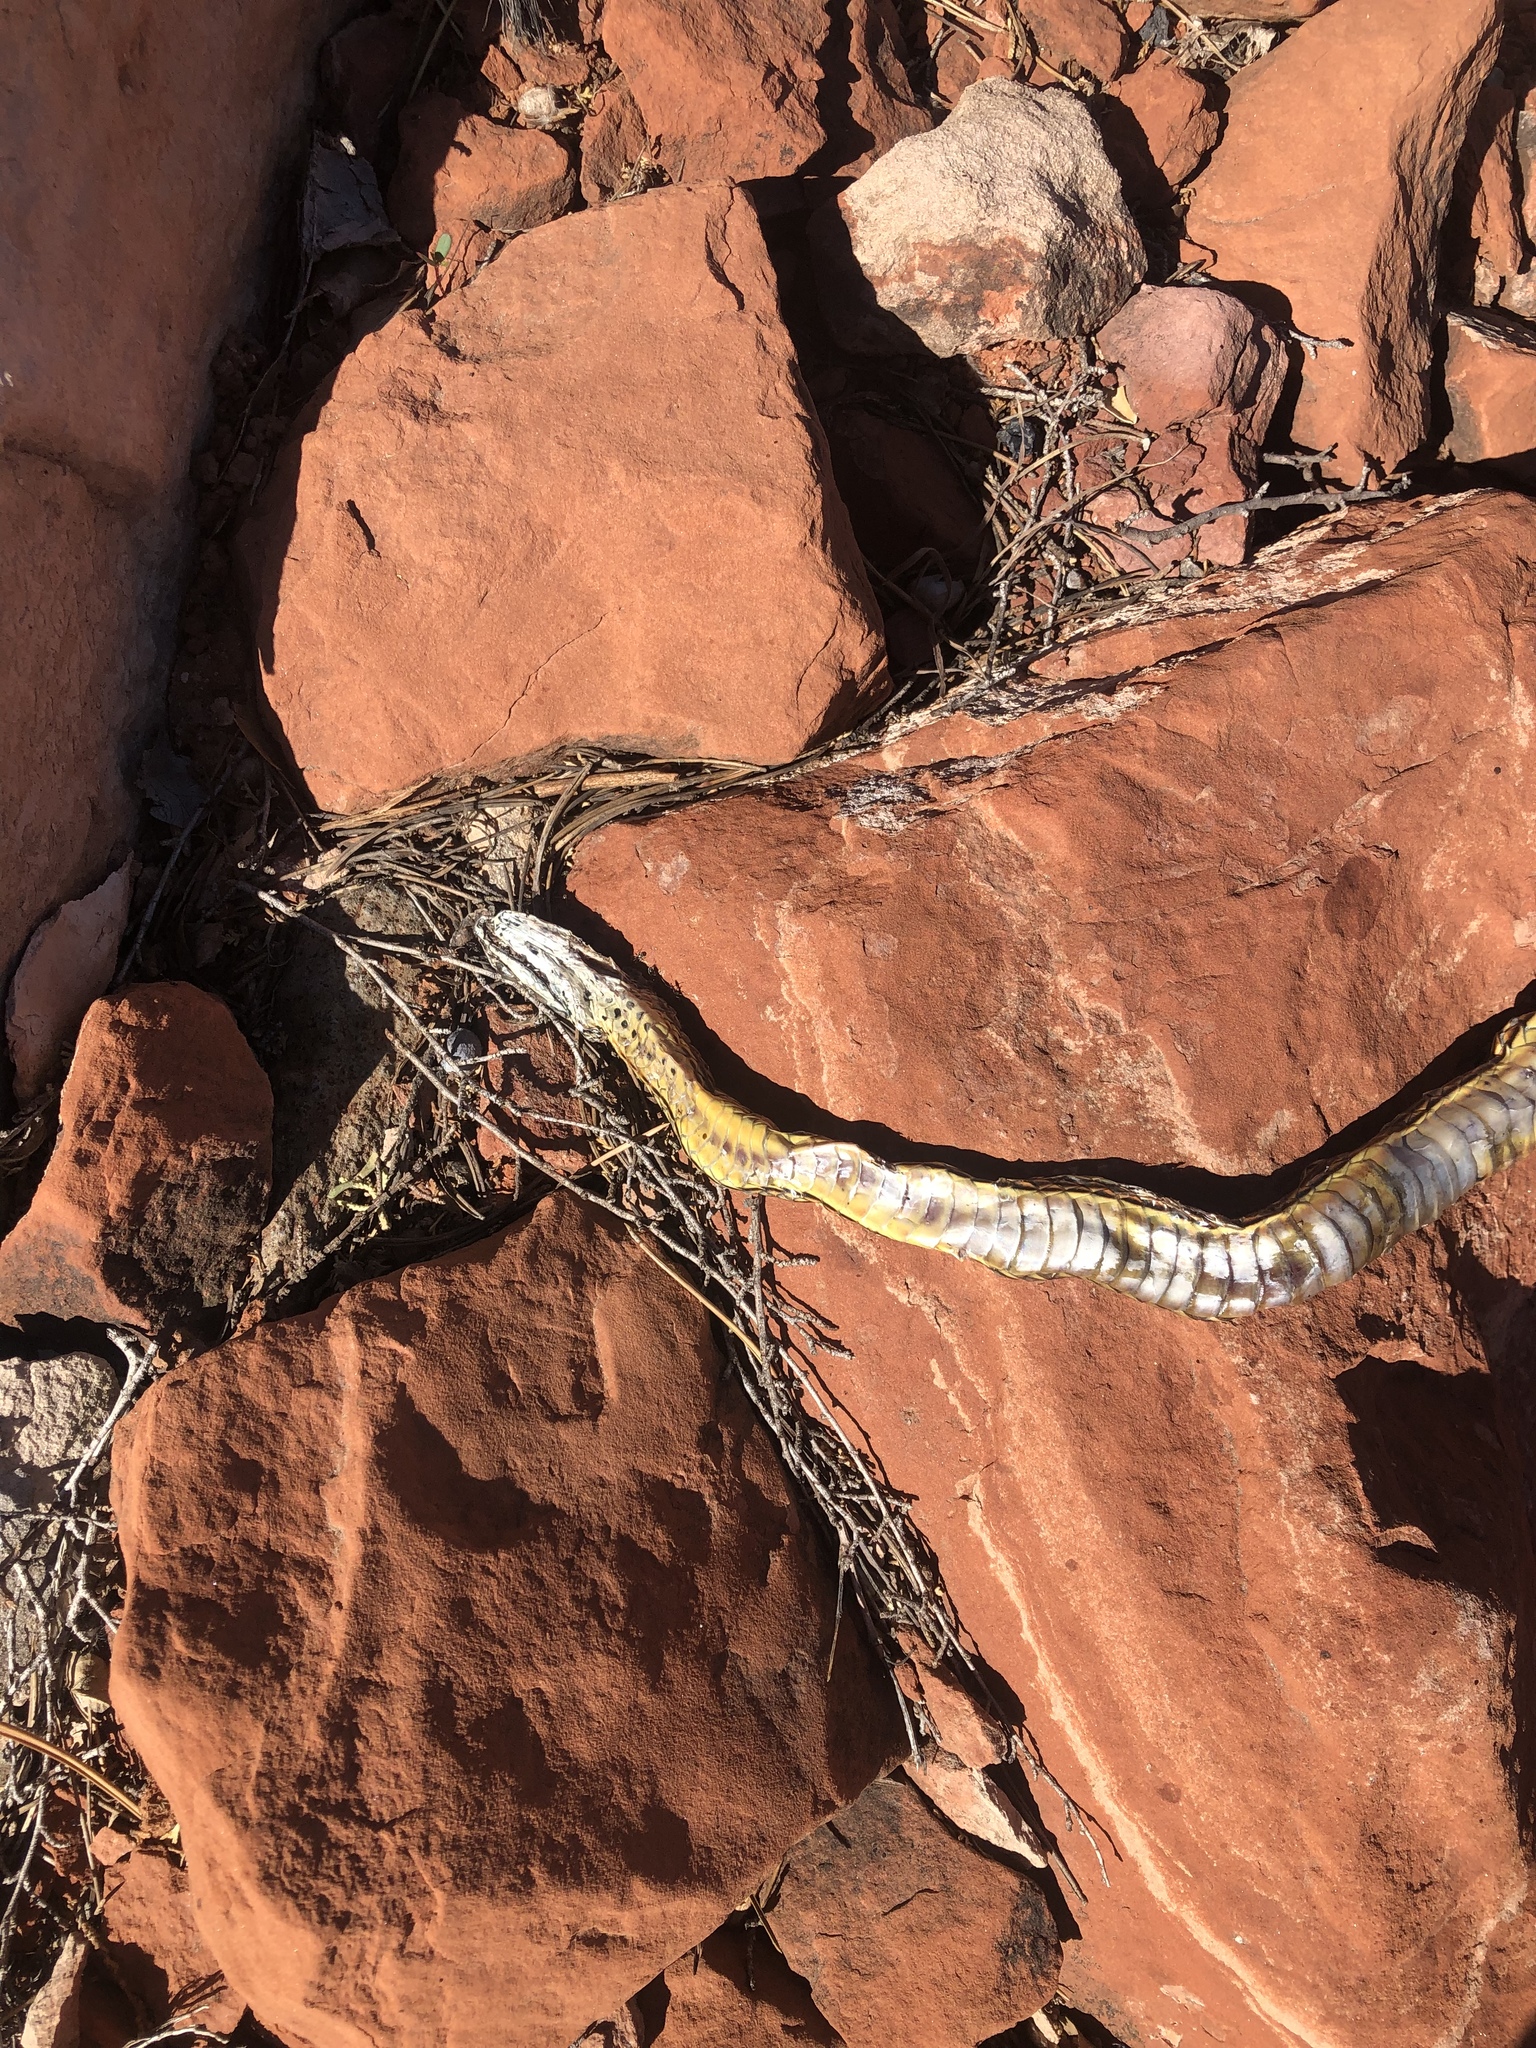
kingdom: Animalia
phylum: Chordata
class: Squamata
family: Colubridae
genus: Masticophis
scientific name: Masticophis taeniatus
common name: Striped whipsnake
